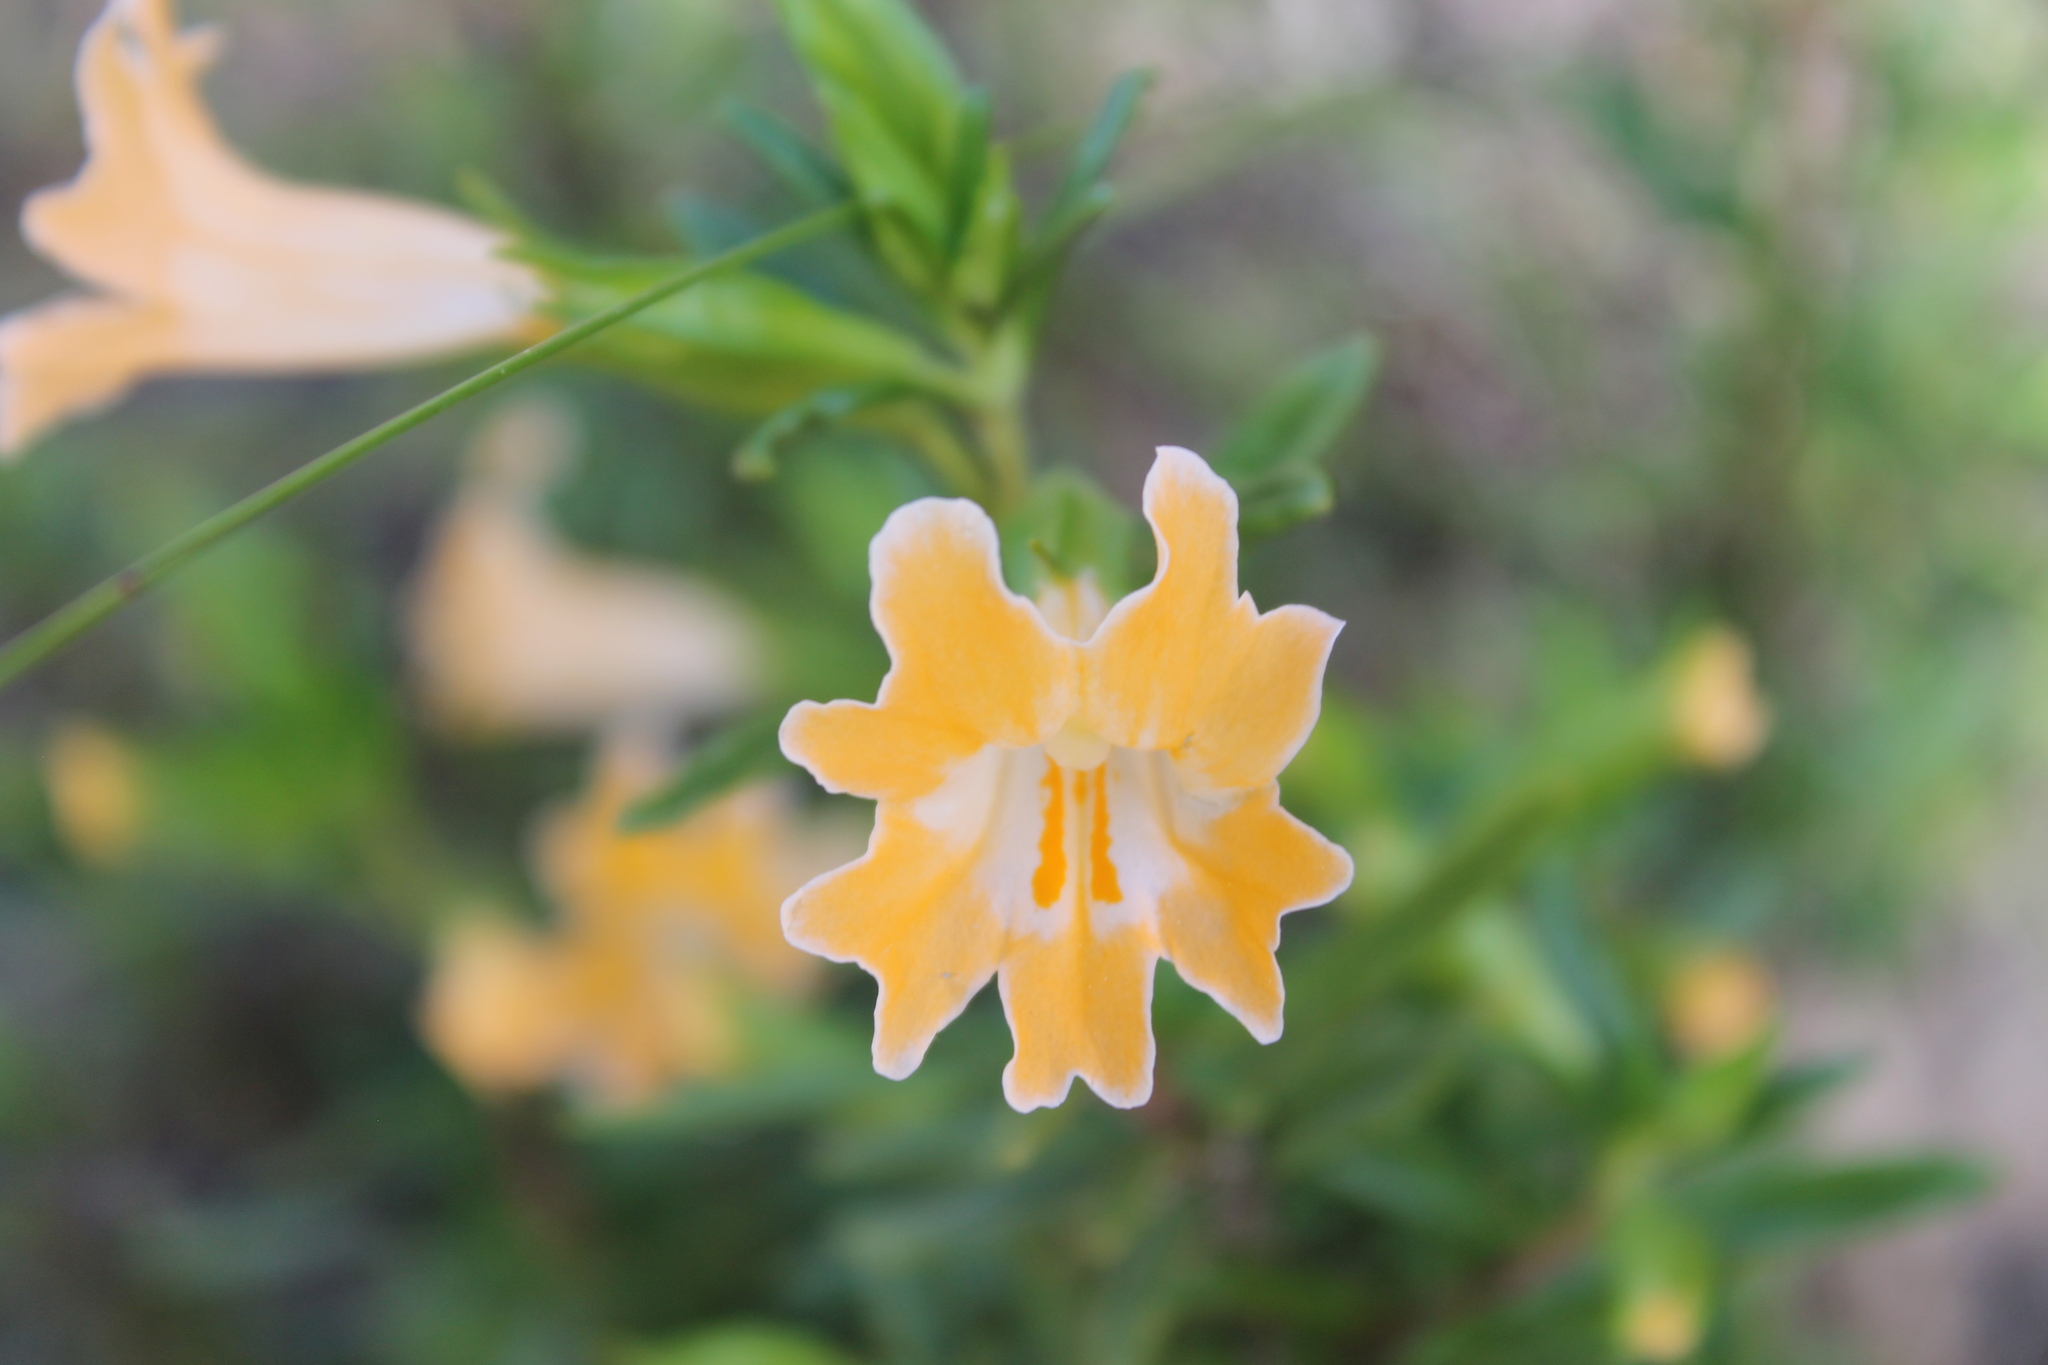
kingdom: Plantae
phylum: Tracheophyta
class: Magnoliopsida
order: Lamiales
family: Phrymaceae
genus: Diplacus
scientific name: Diplacus linearis
